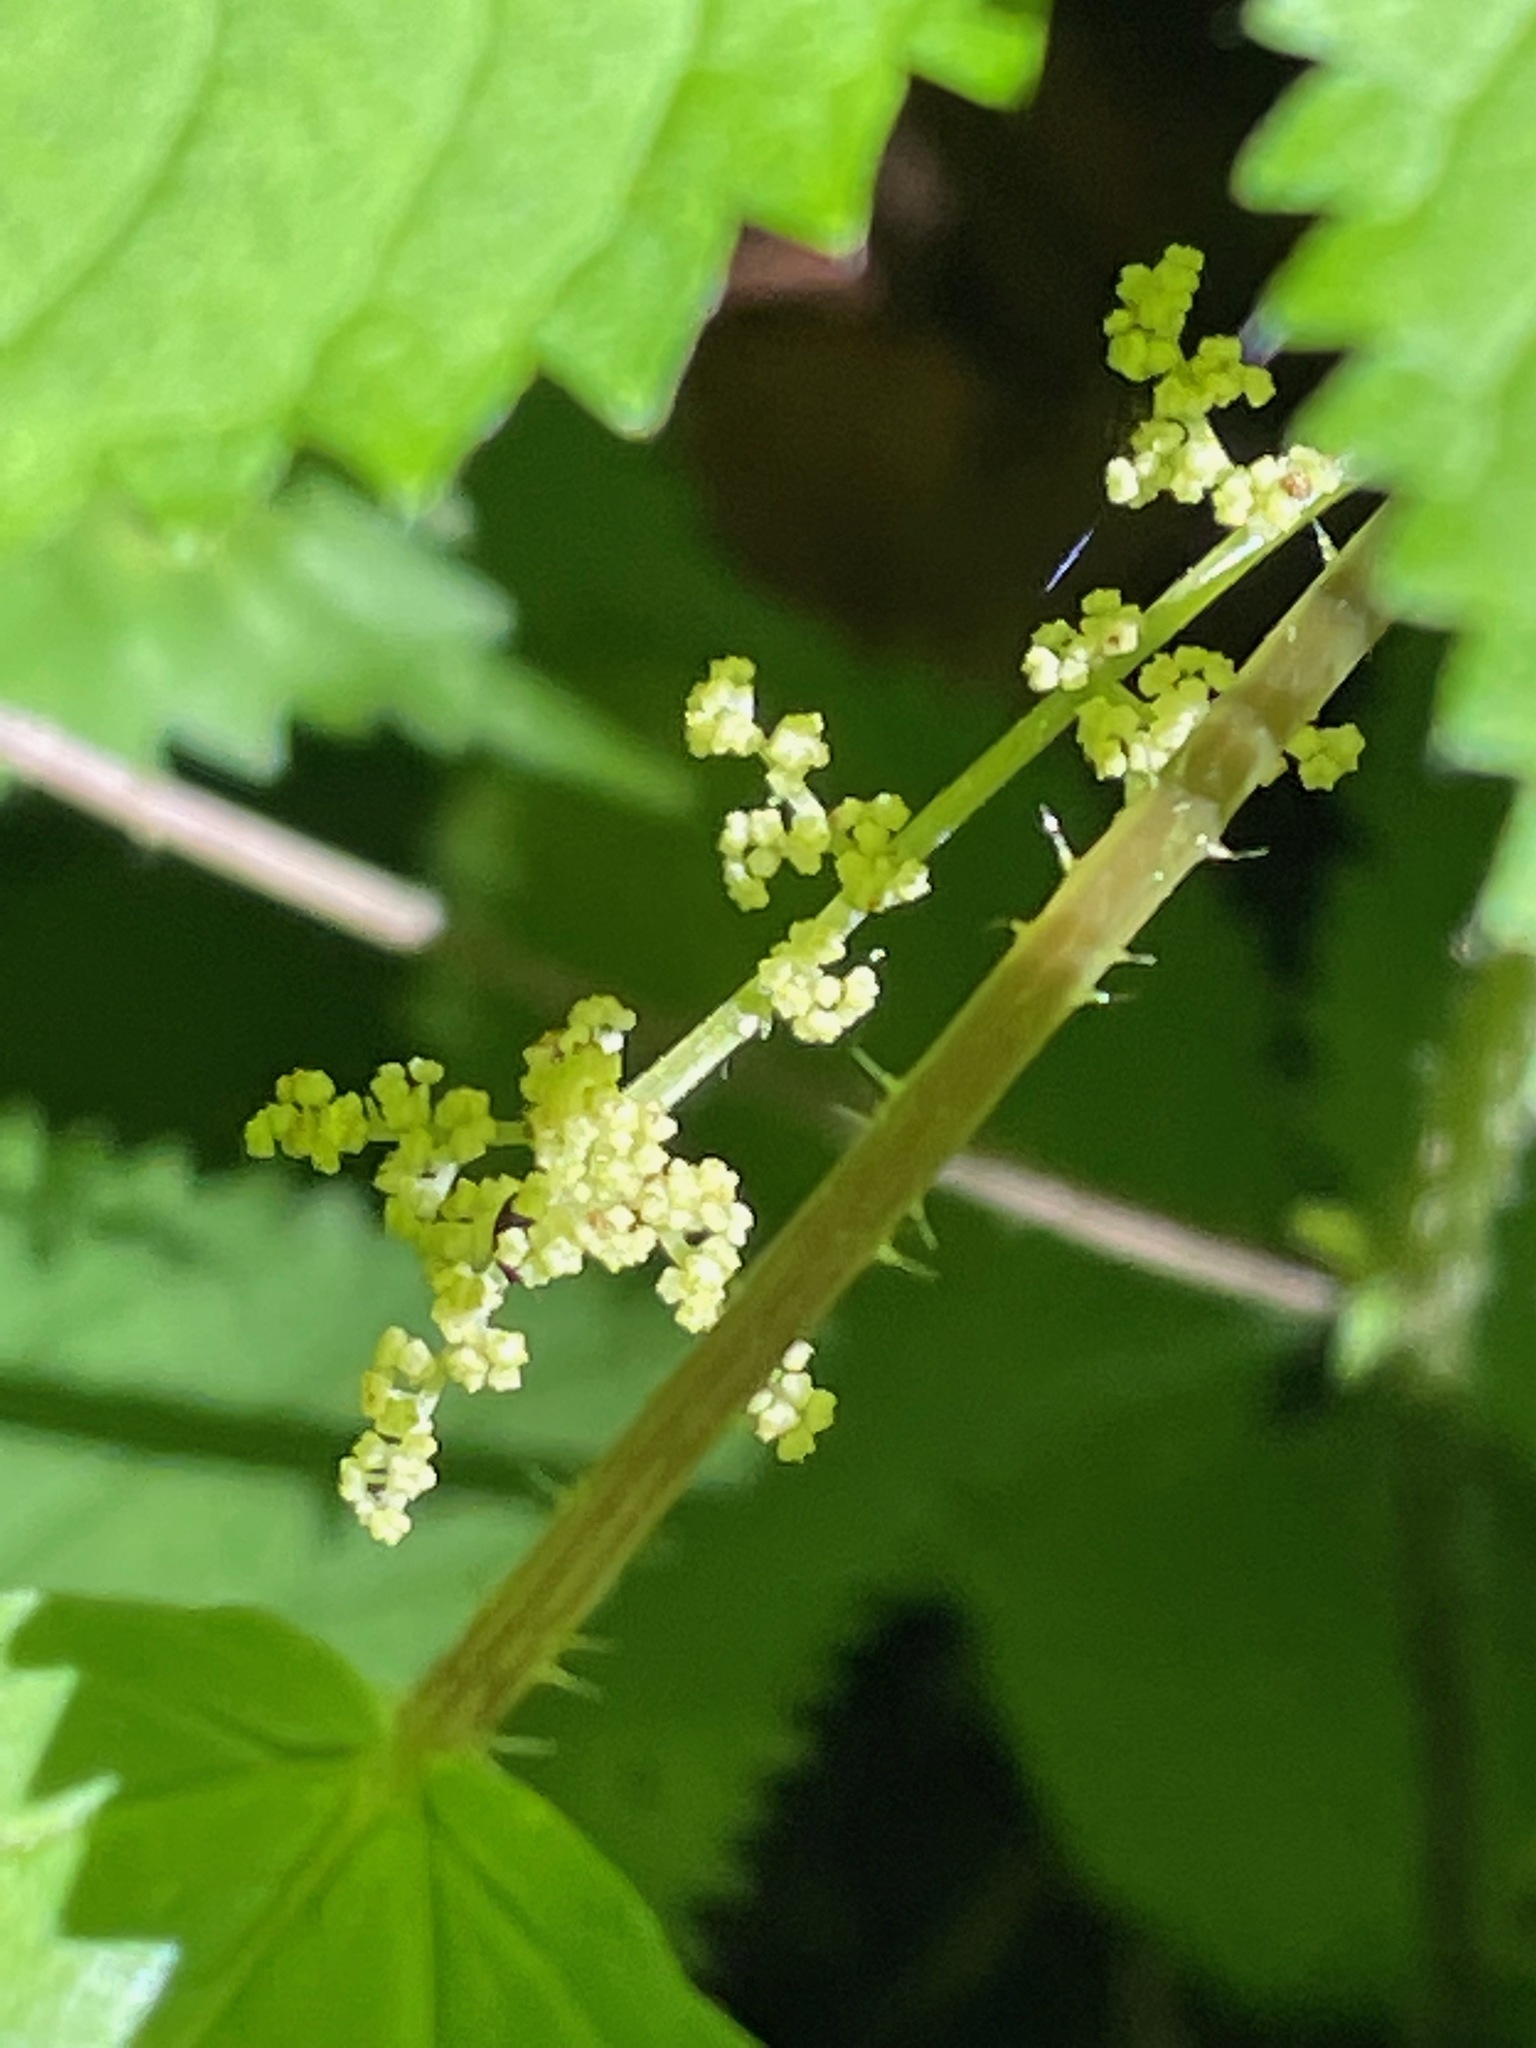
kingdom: Plantae
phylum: Tracheophyta
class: Magnoliopsida
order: Rosales
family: Urticaceae
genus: Laportea
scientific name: Laportea canadensis
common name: Canada nettle
